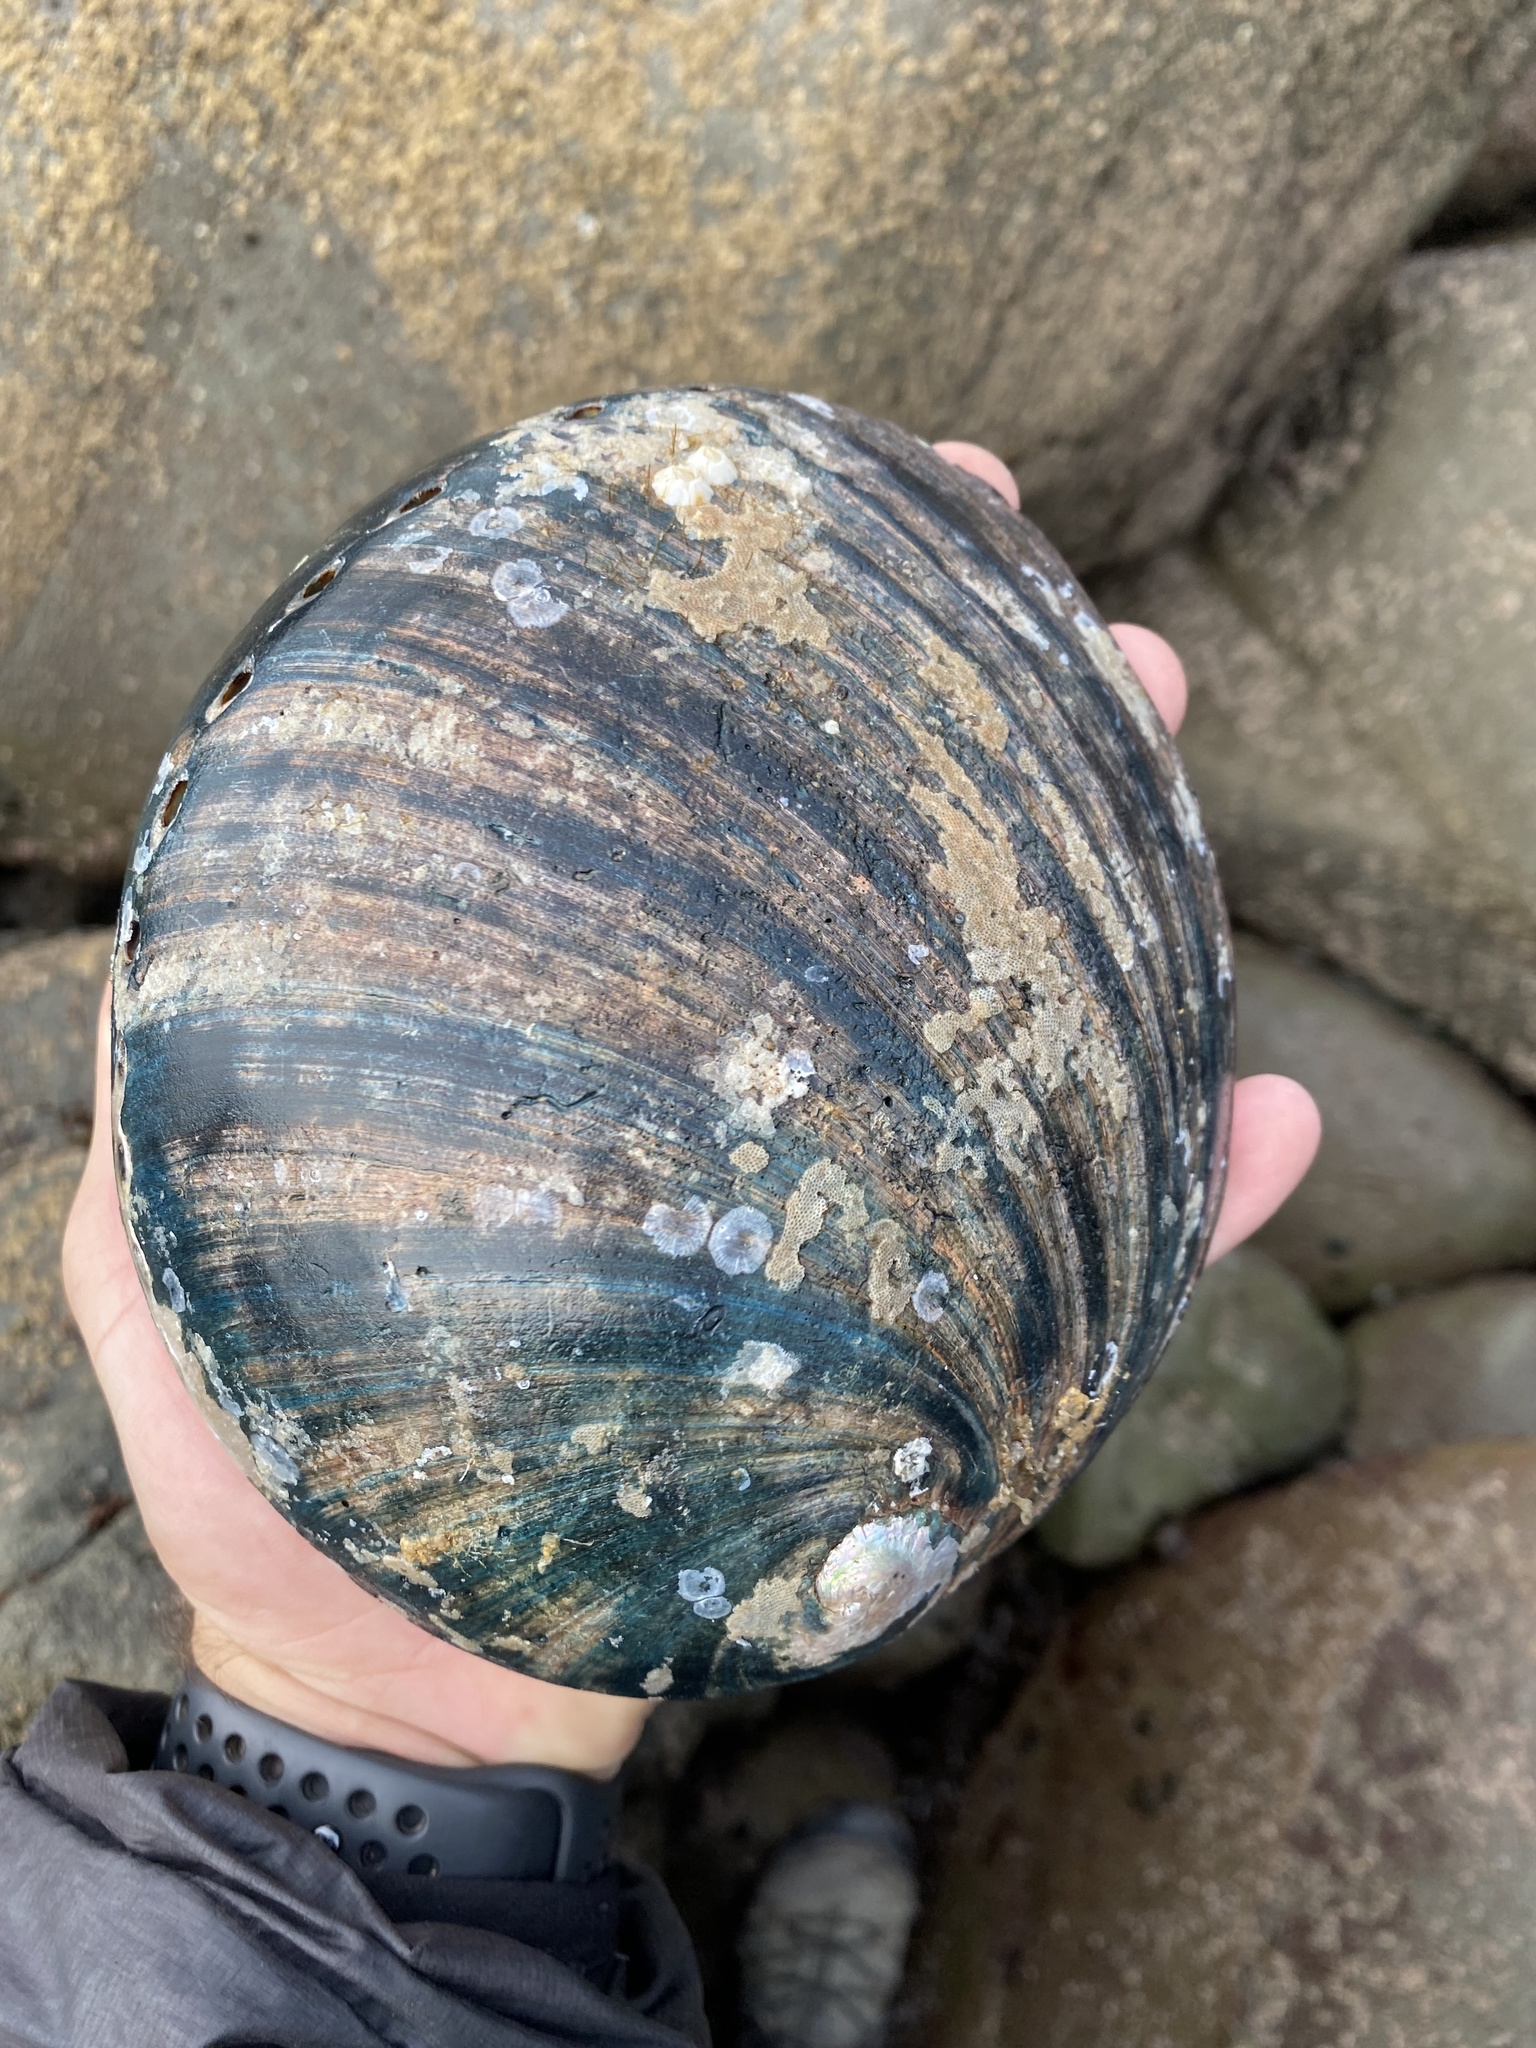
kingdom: Animalia
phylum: Mollusca
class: Gastropoda
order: Lepetellida
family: Haliotidae
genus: Haliotis
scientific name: Haliotis cracherodii
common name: Black abalone
